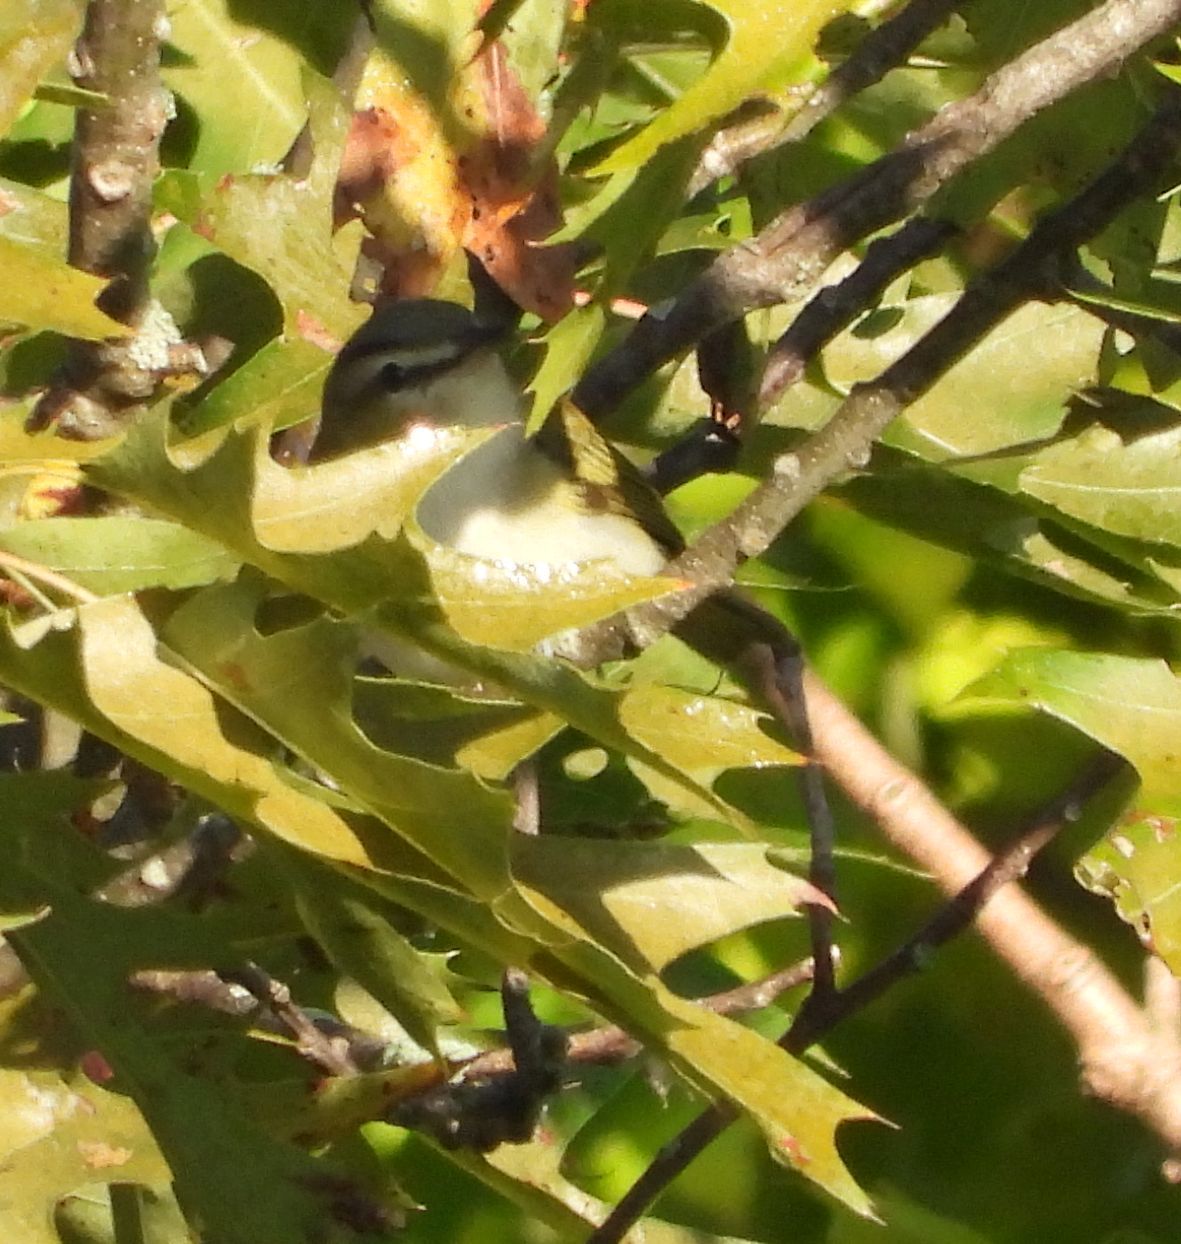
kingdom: Animalia
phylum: Chordata
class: Aves
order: Passeriformes
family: Vireonidae
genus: Vireo
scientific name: Vireo olivaceus
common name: Red-eyed vireo
